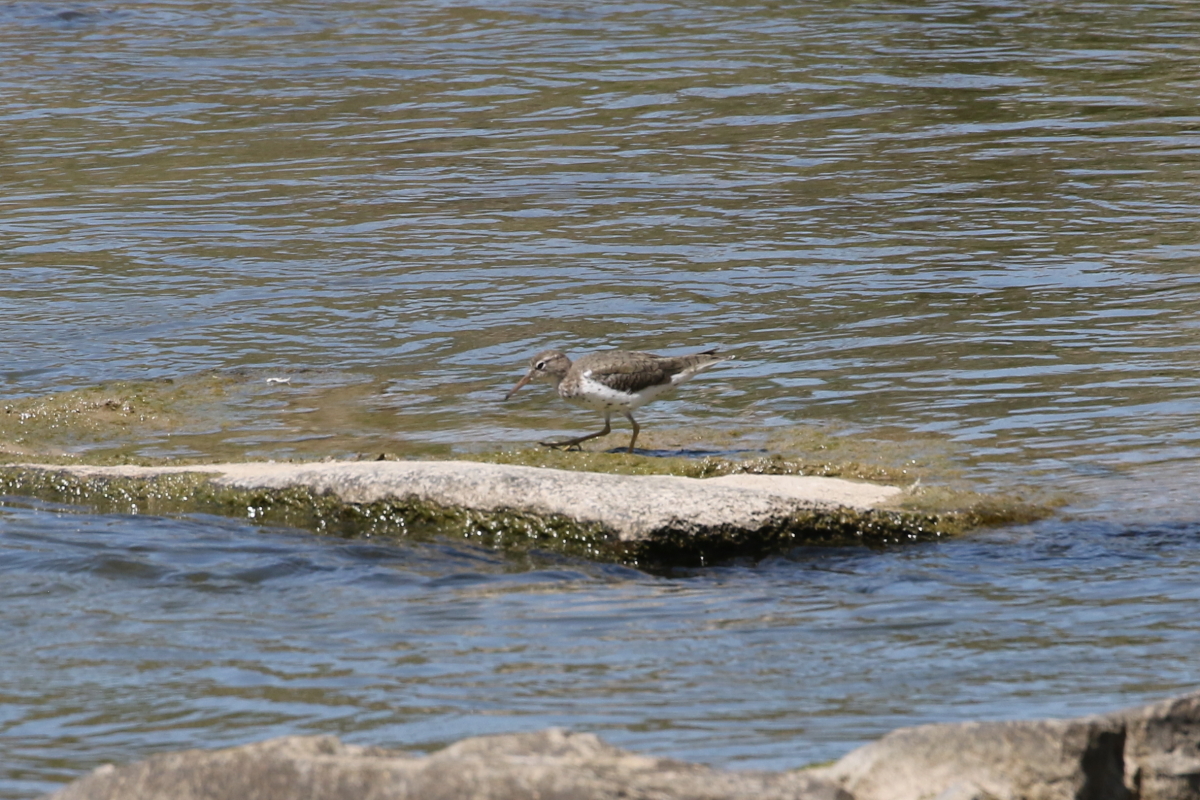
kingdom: Animalia
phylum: Chordata
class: Aves
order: Charadriiformes
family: Scolopacidae
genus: Actitis
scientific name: Actitis macularius
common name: Spotted sandpiper
